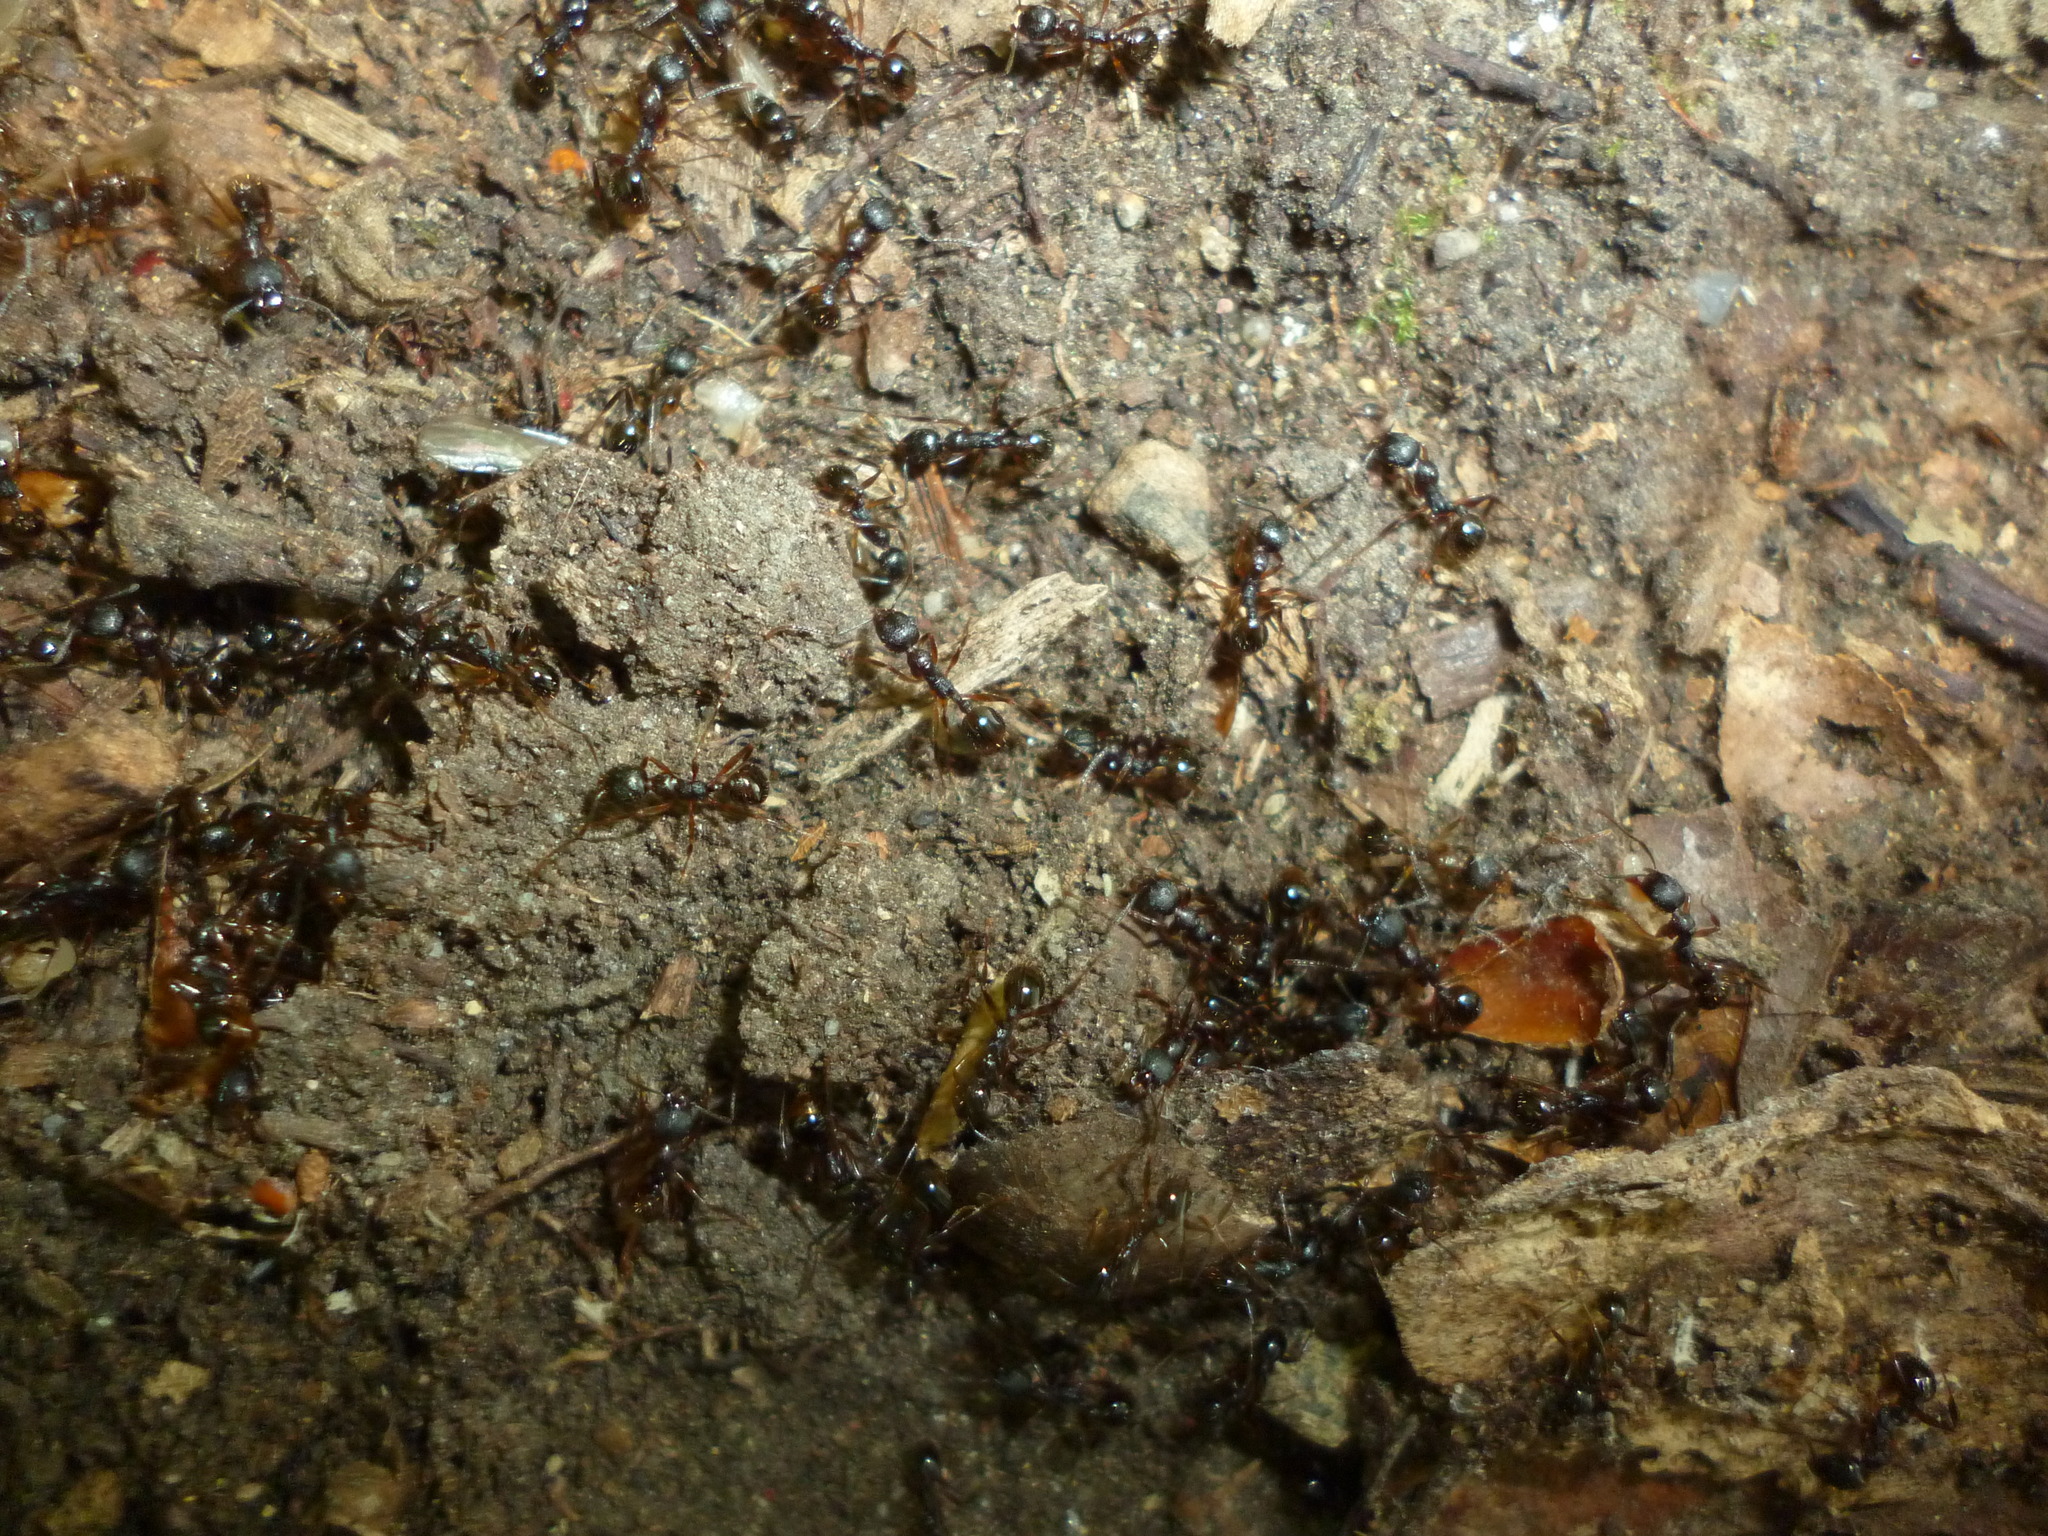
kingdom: Animalia
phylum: Arthropoda
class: Insecta
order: Hymenoptera
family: Formicidae
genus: Aphaenogaster
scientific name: Aphaenogaster picea
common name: Pitch-black collared ant
